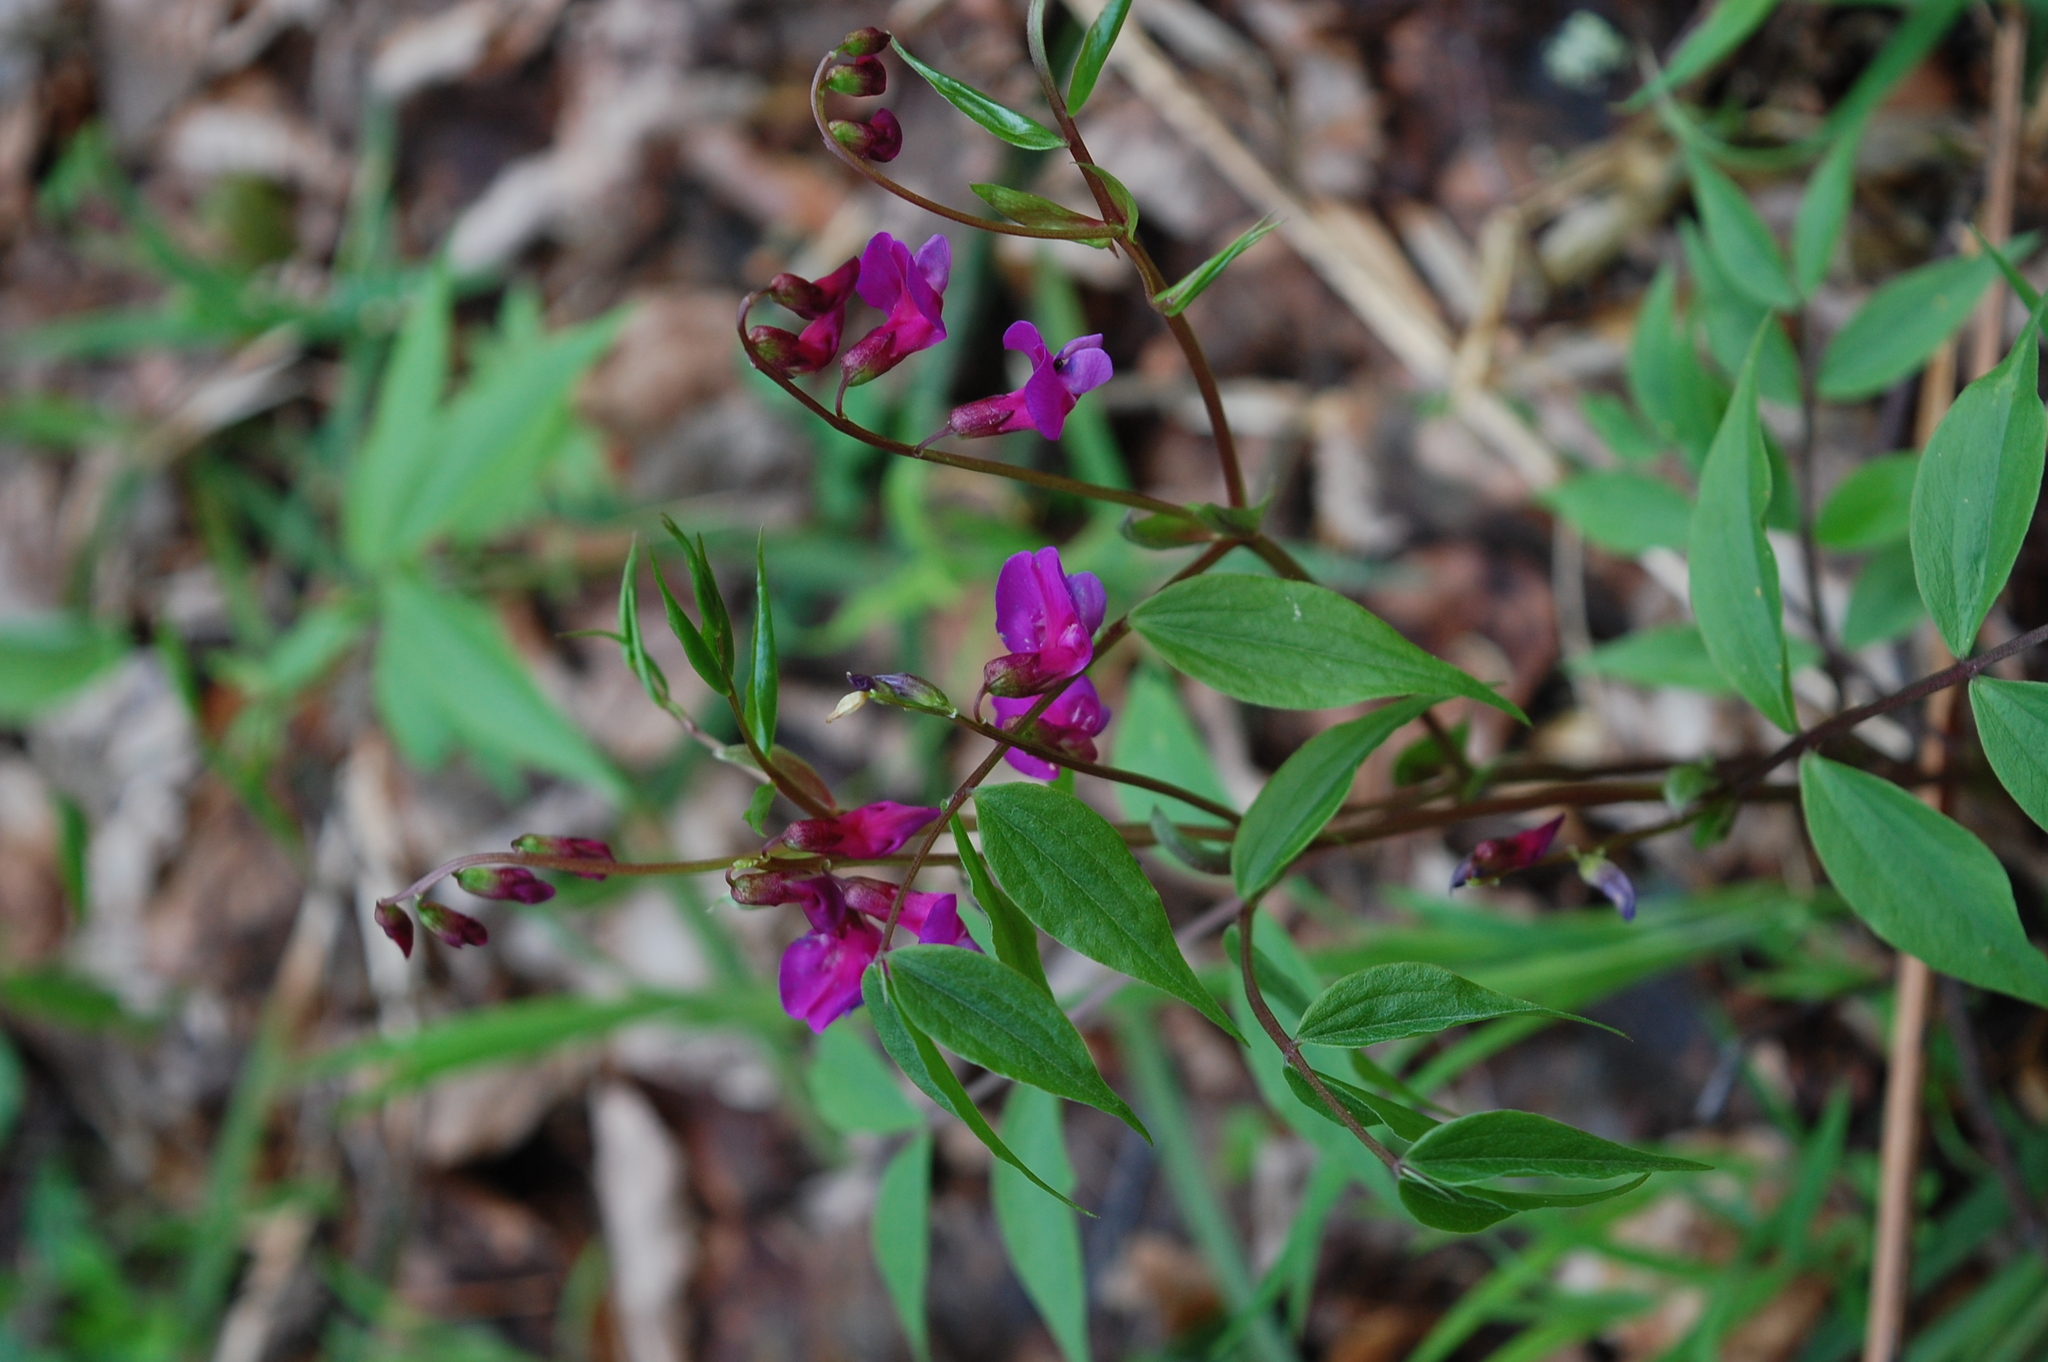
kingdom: Plantae
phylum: Tracheophyta
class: Magnoliopsida
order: Fabales
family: Fabaceae
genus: Lathyrus
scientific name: Lathyrus vernus
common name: Spring pea
